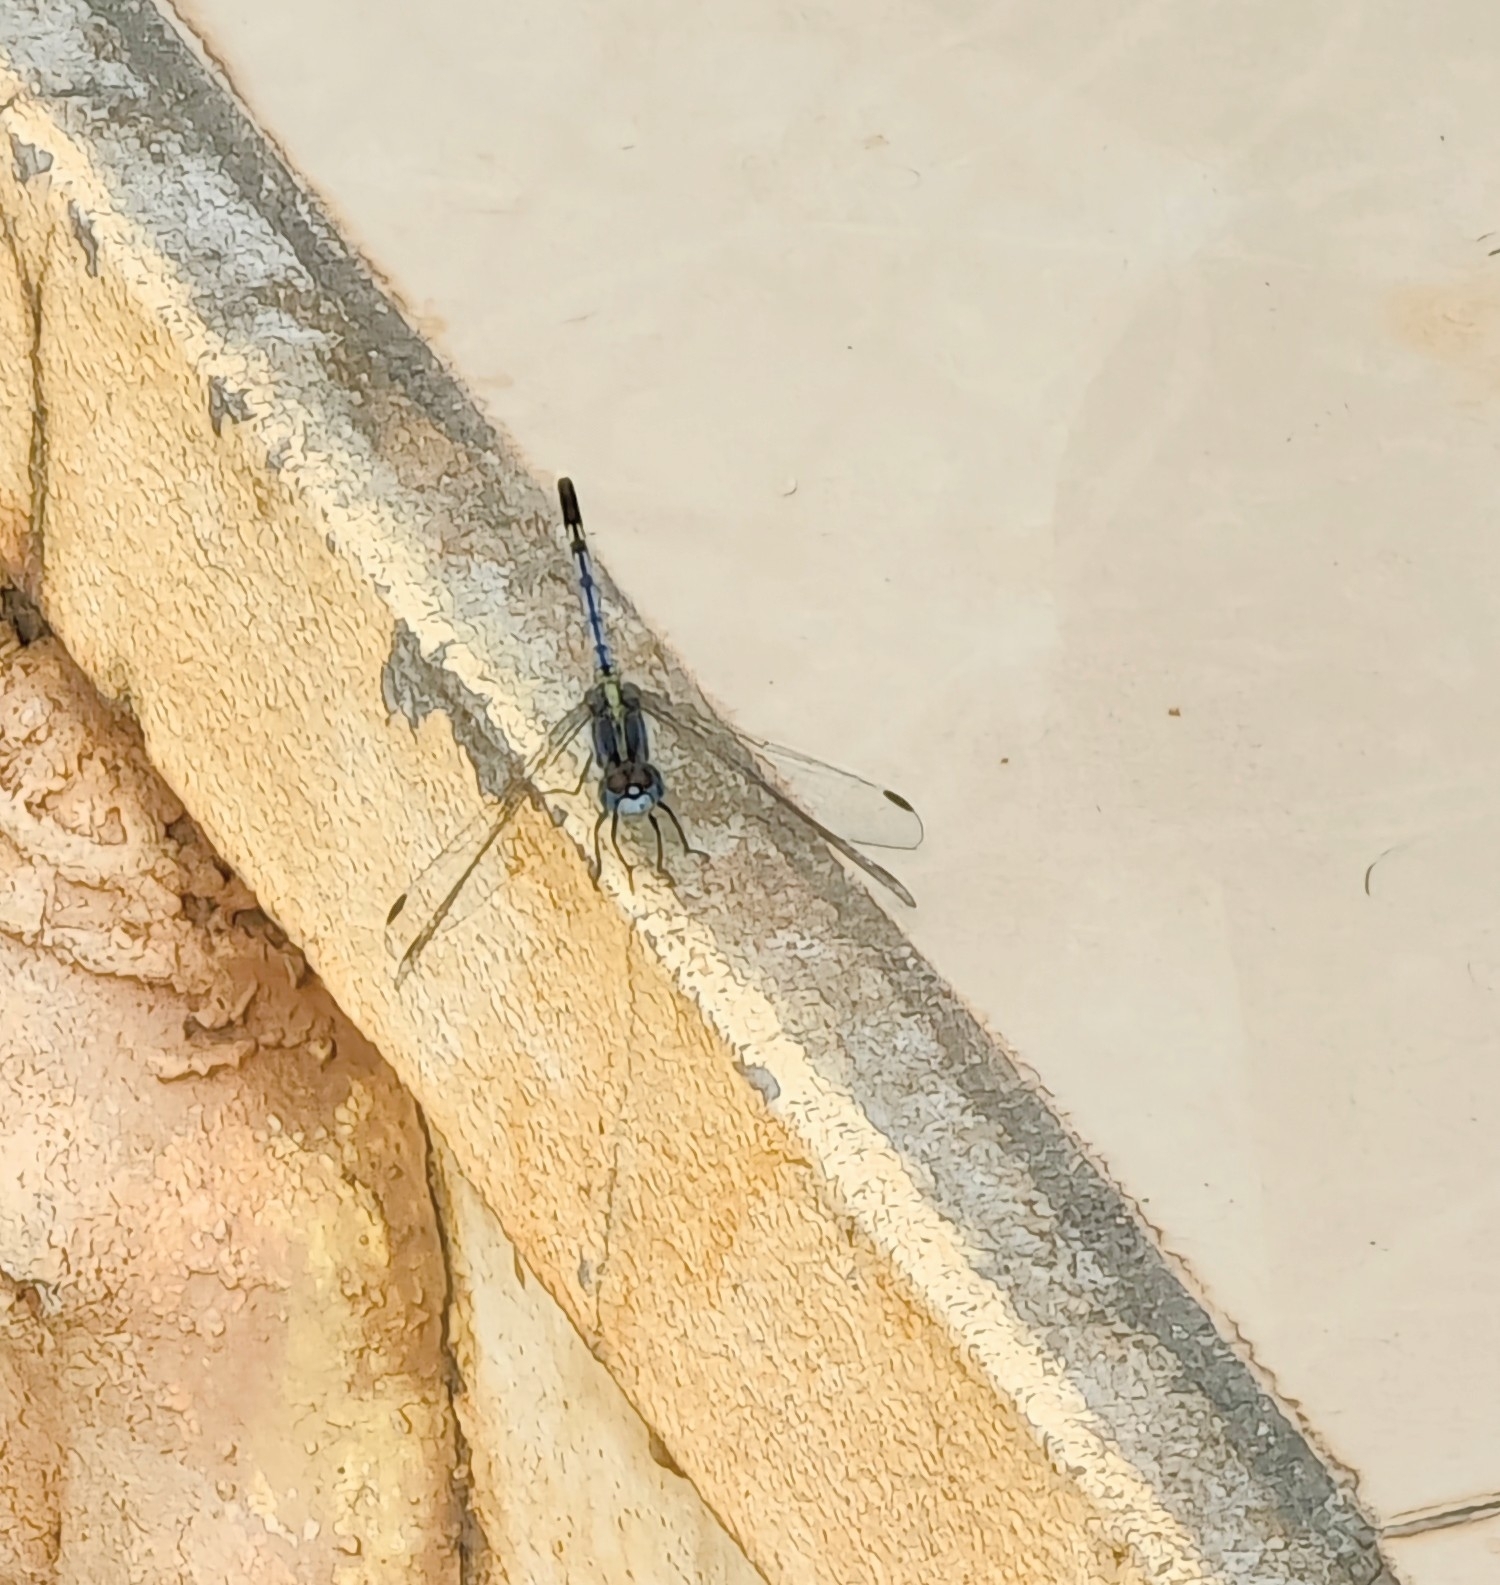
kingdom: Animalia
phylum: Arthropoda
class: Insecta
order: Odonata
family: Libellulidae
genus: Diplacodes
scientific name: Diplacodes trivialis
